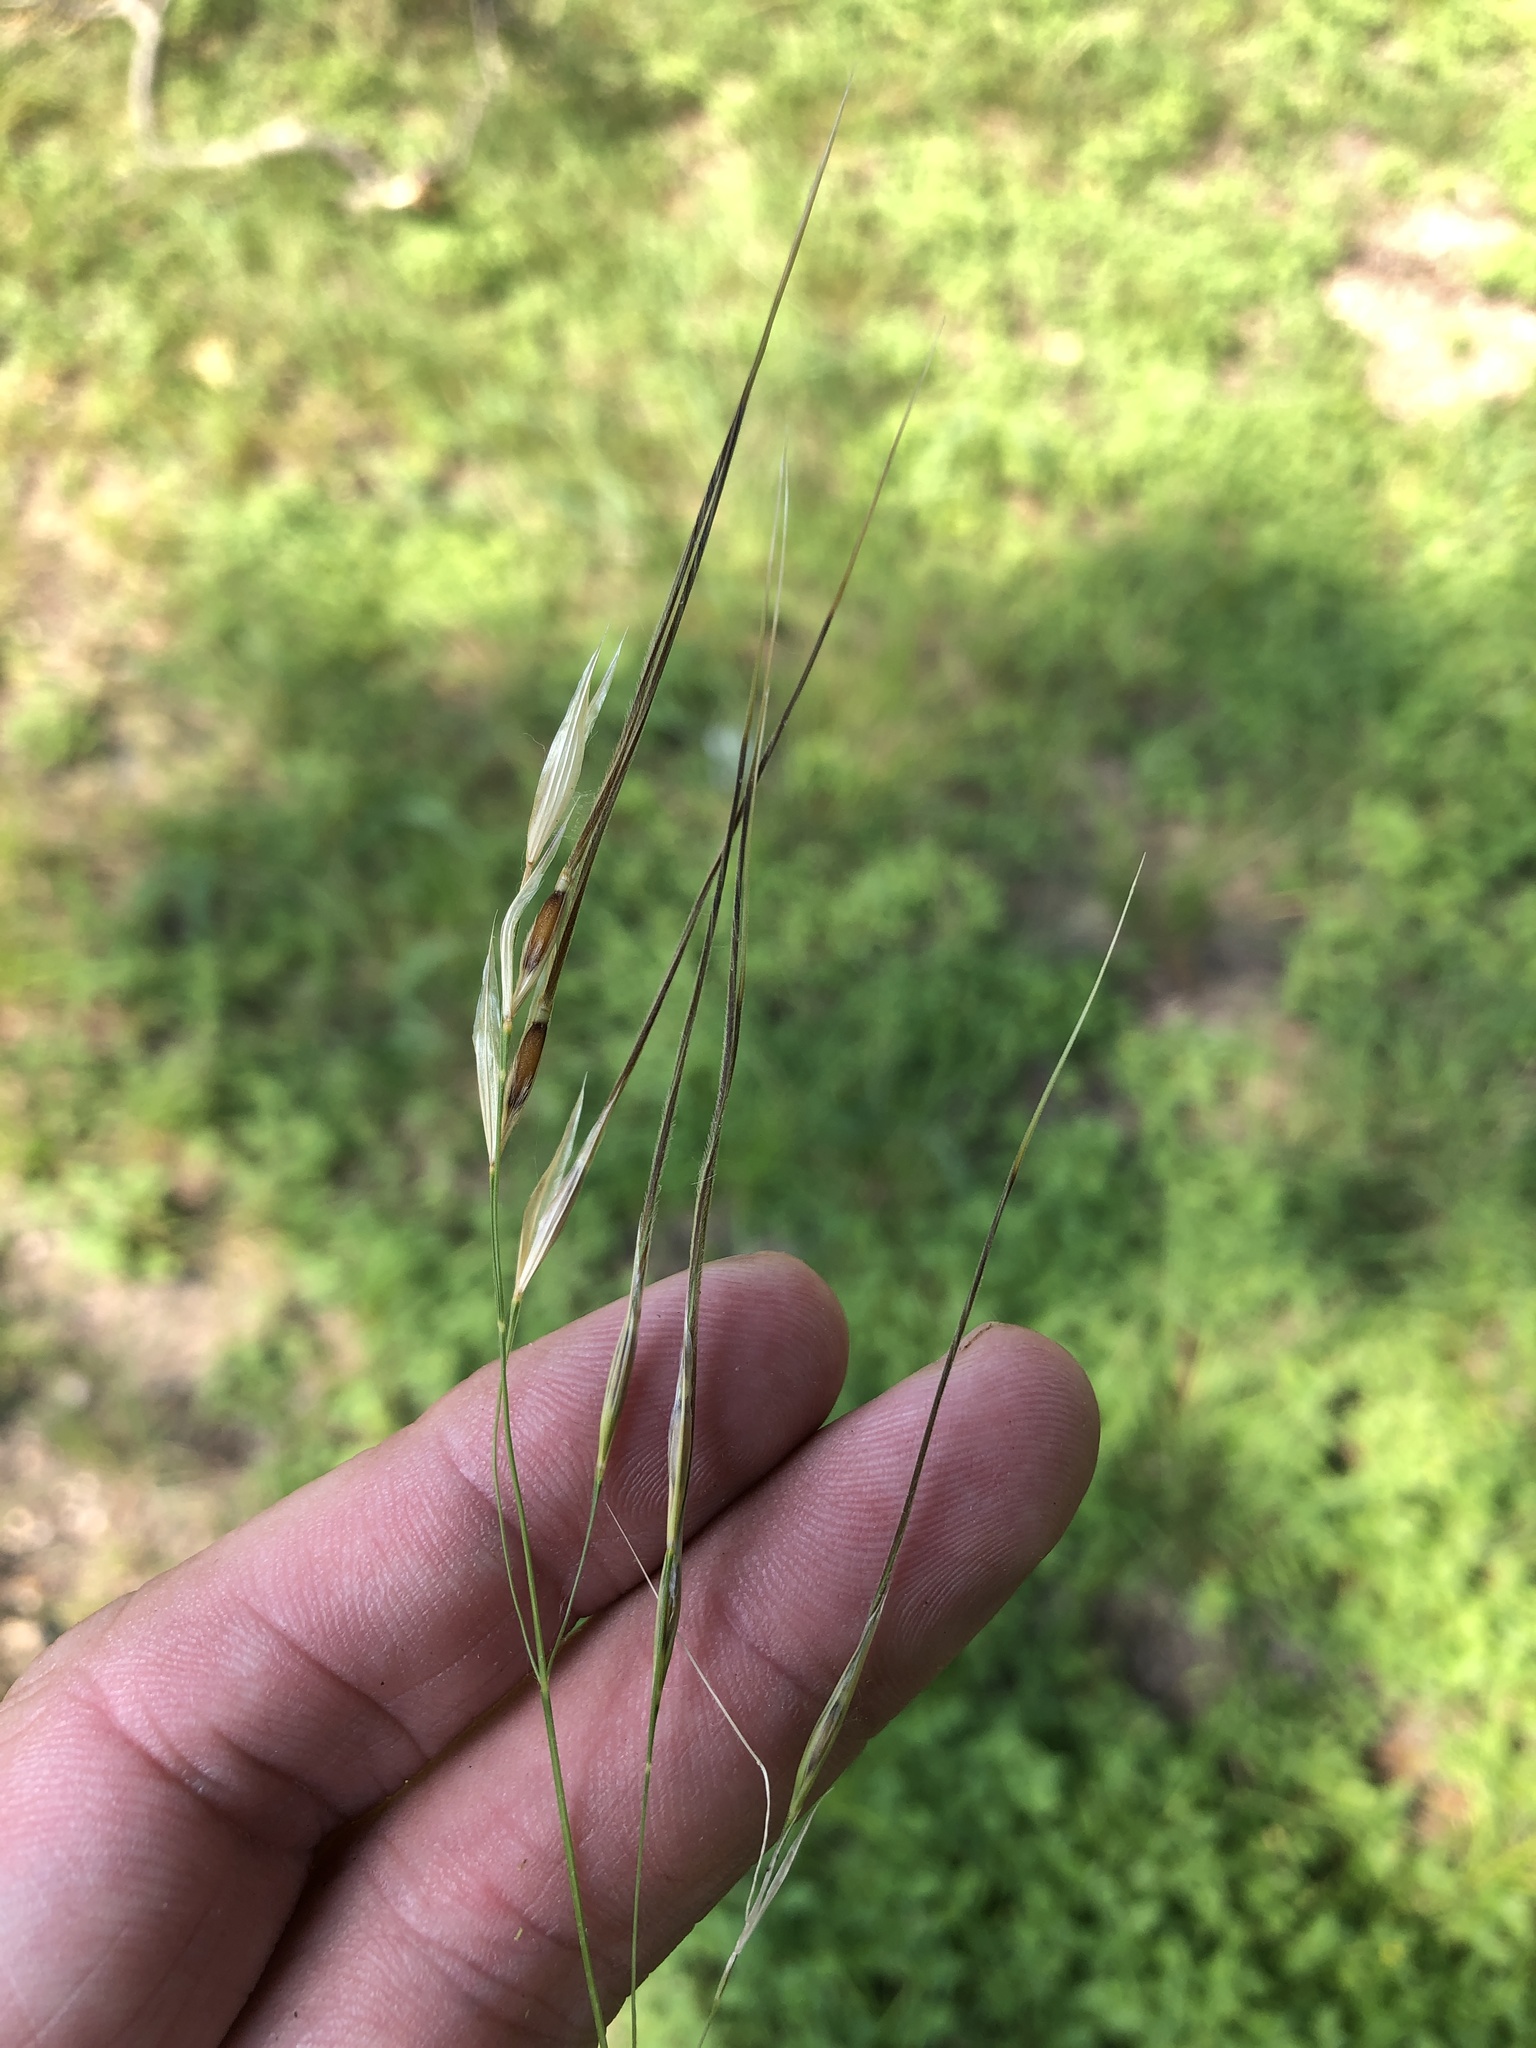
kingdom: Plantae
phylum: Tracheophyta
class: Liliopsida
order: Poales
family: Poaceae
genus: Nassella
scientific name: Nassella leucotricha
